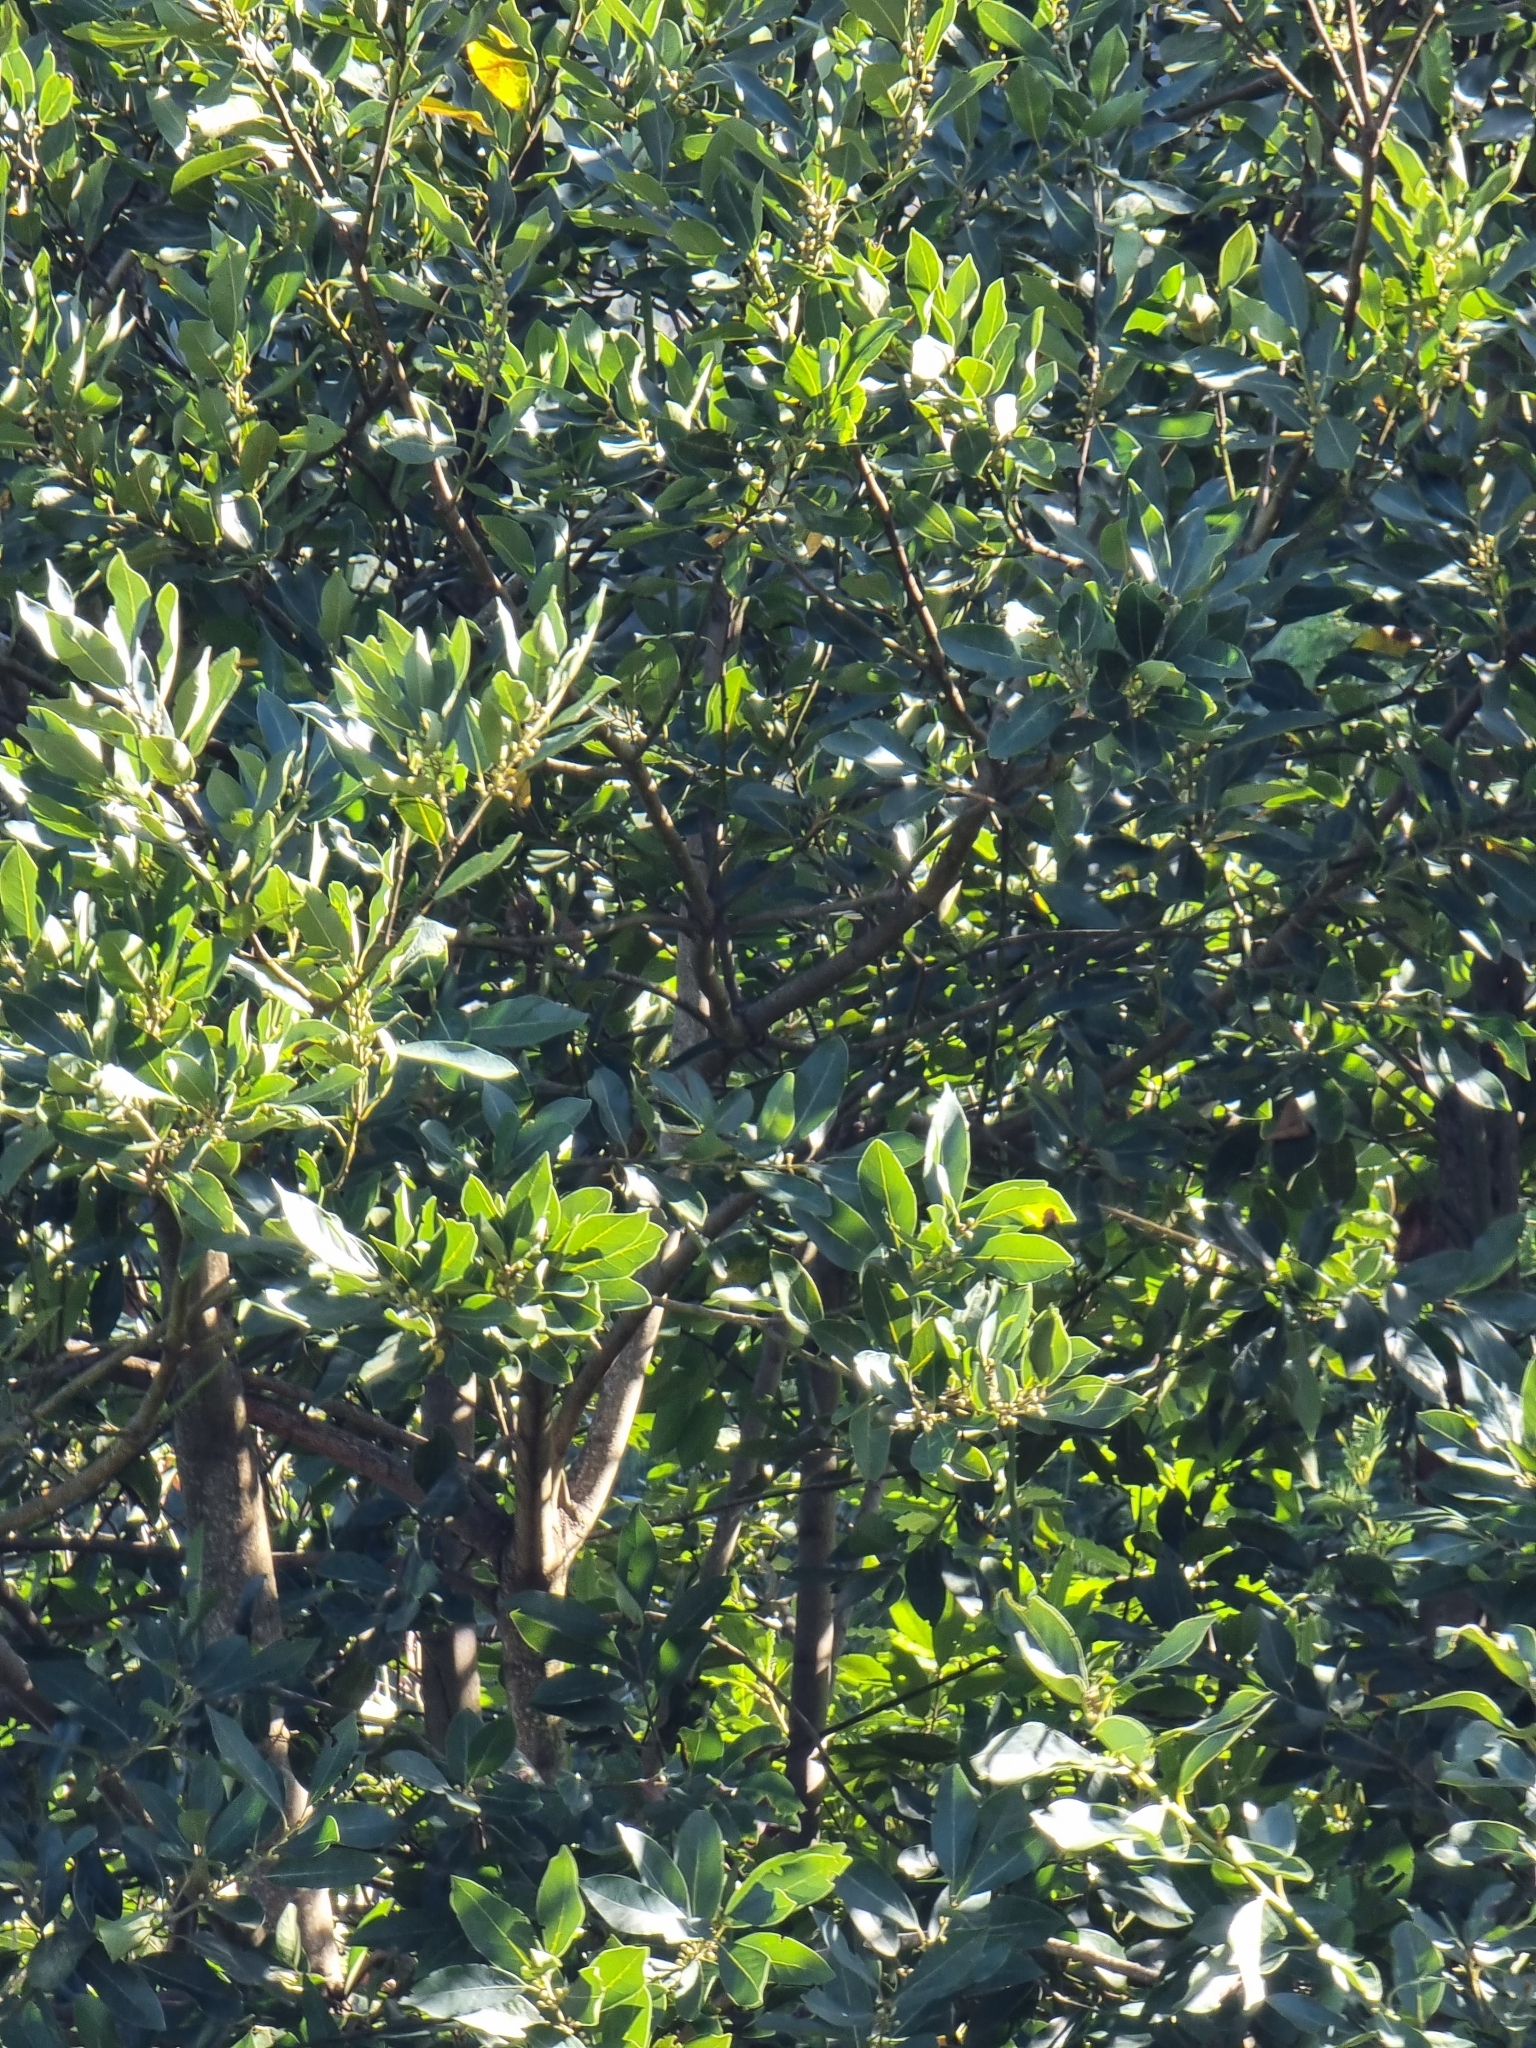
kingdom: Plantae
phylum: Tracheophyta
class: Magnoliopsida
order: Laurales
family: Lauraceae
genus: Laurus
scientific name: Laurus novocanariensis
